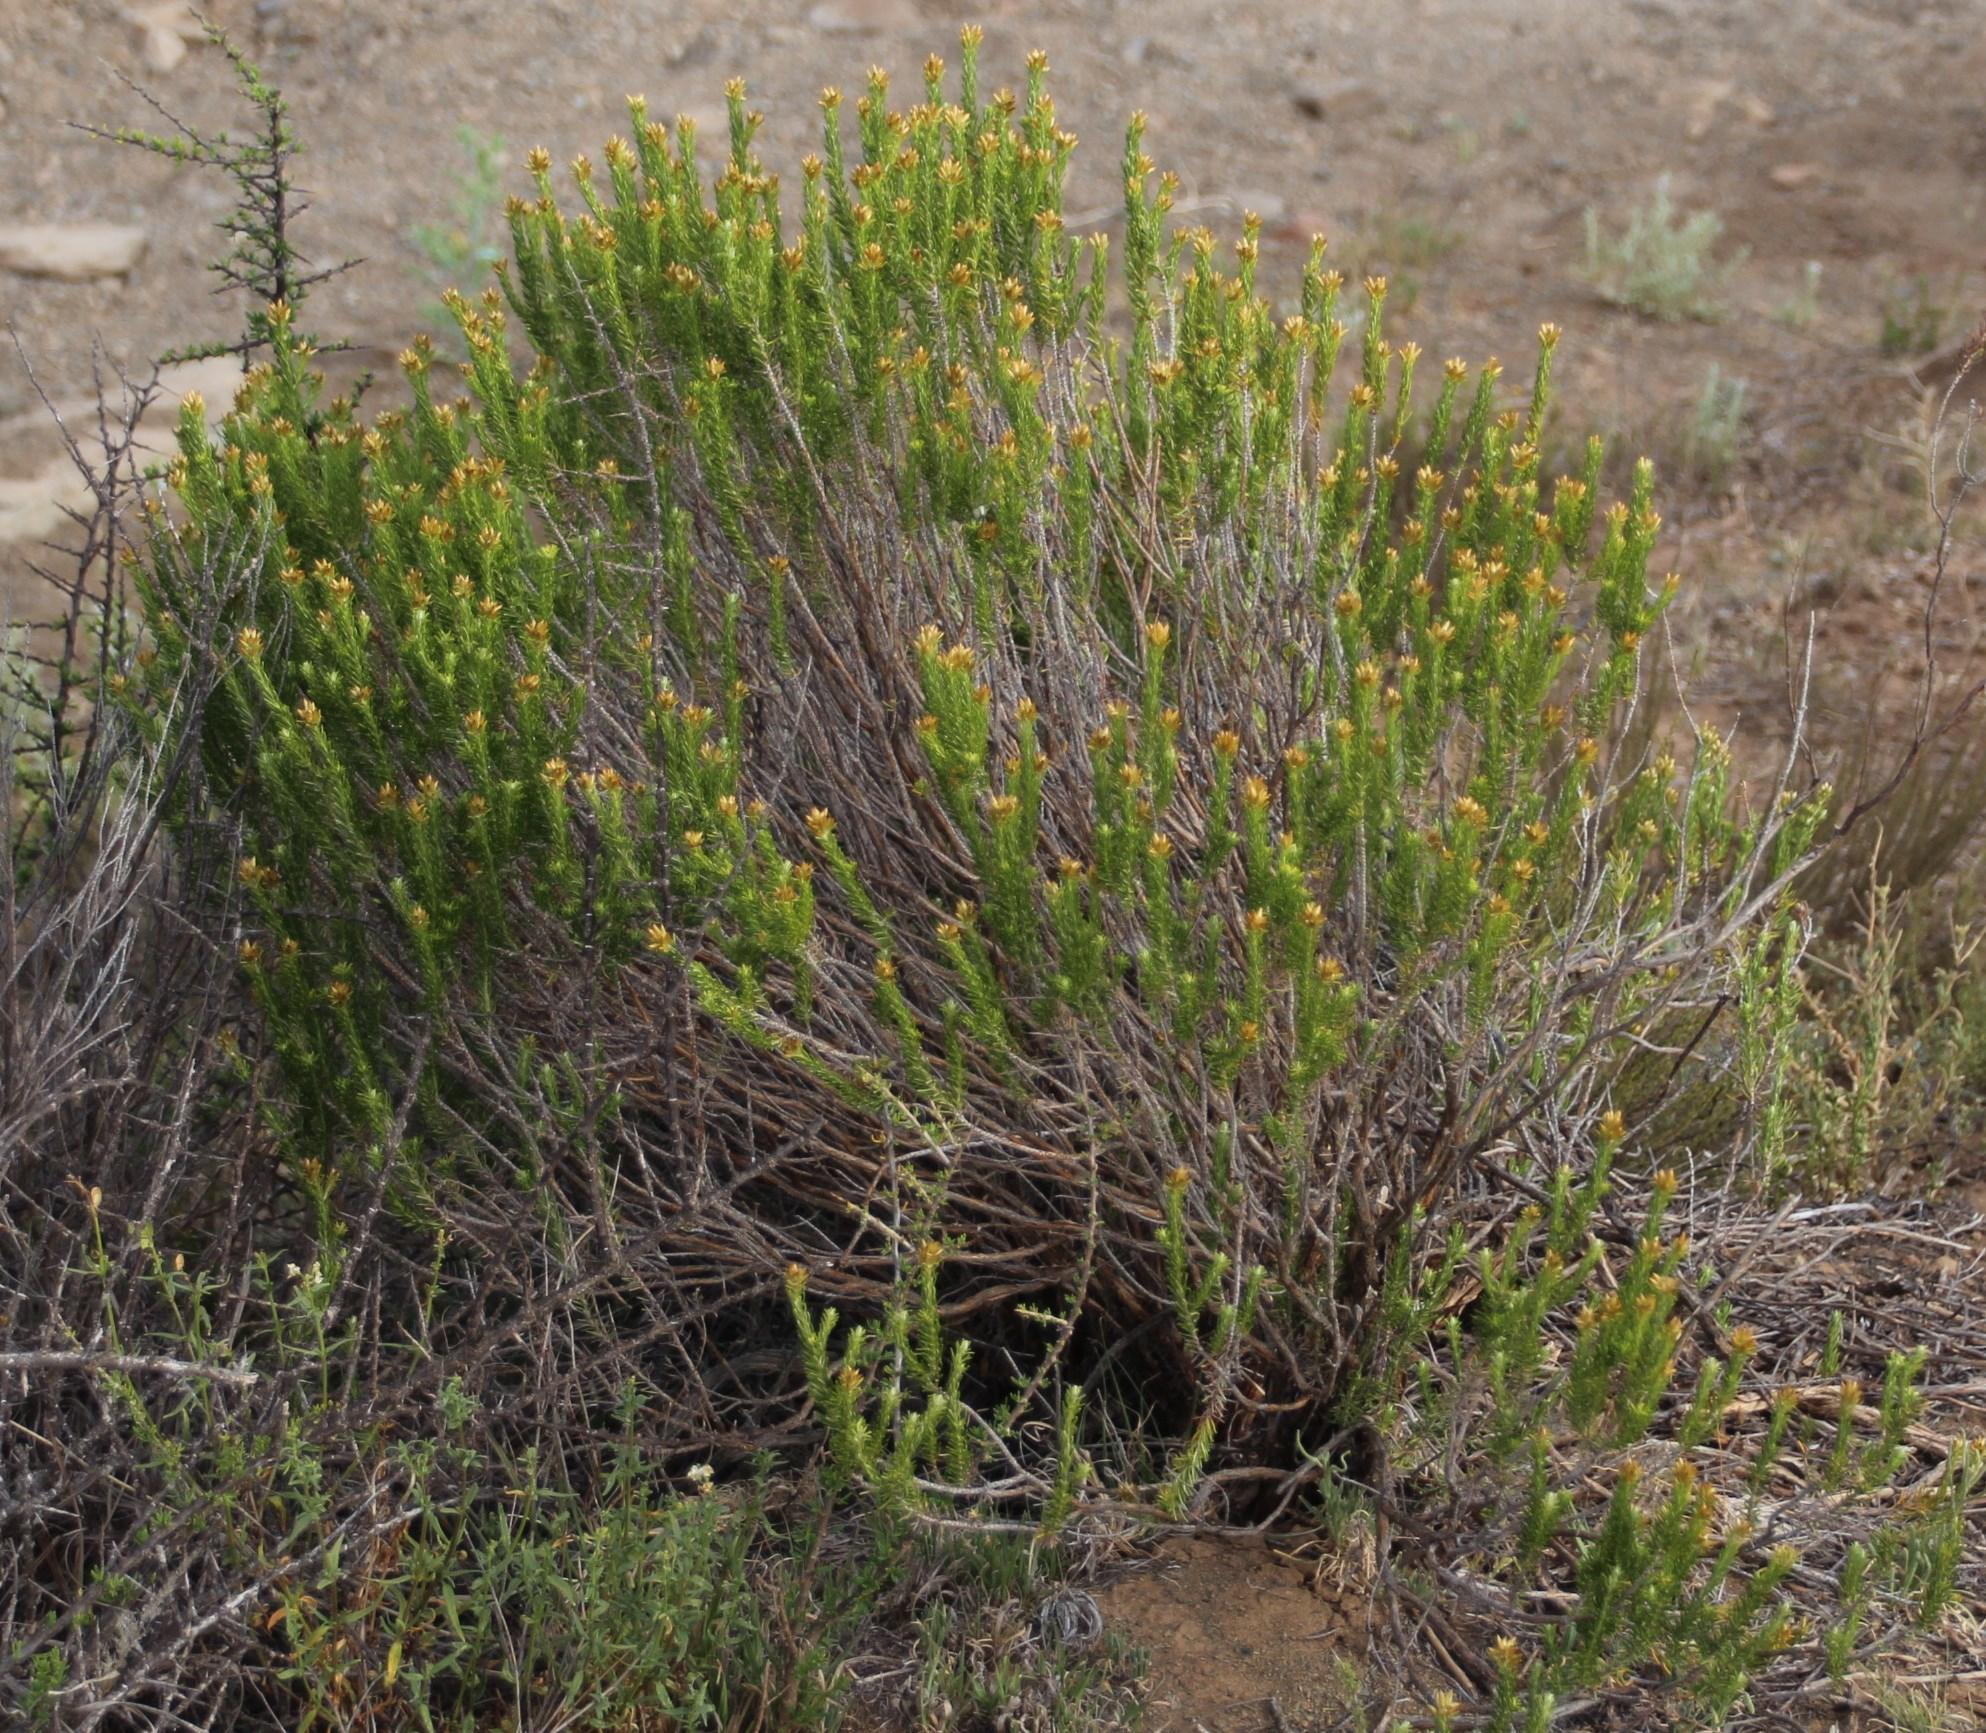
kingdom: Plantae
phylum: Tracheophyta
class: Magnoliopsida
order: Asterales
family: Asteraceae
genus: Helichrysum
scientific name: Helichrysum hamulosum
